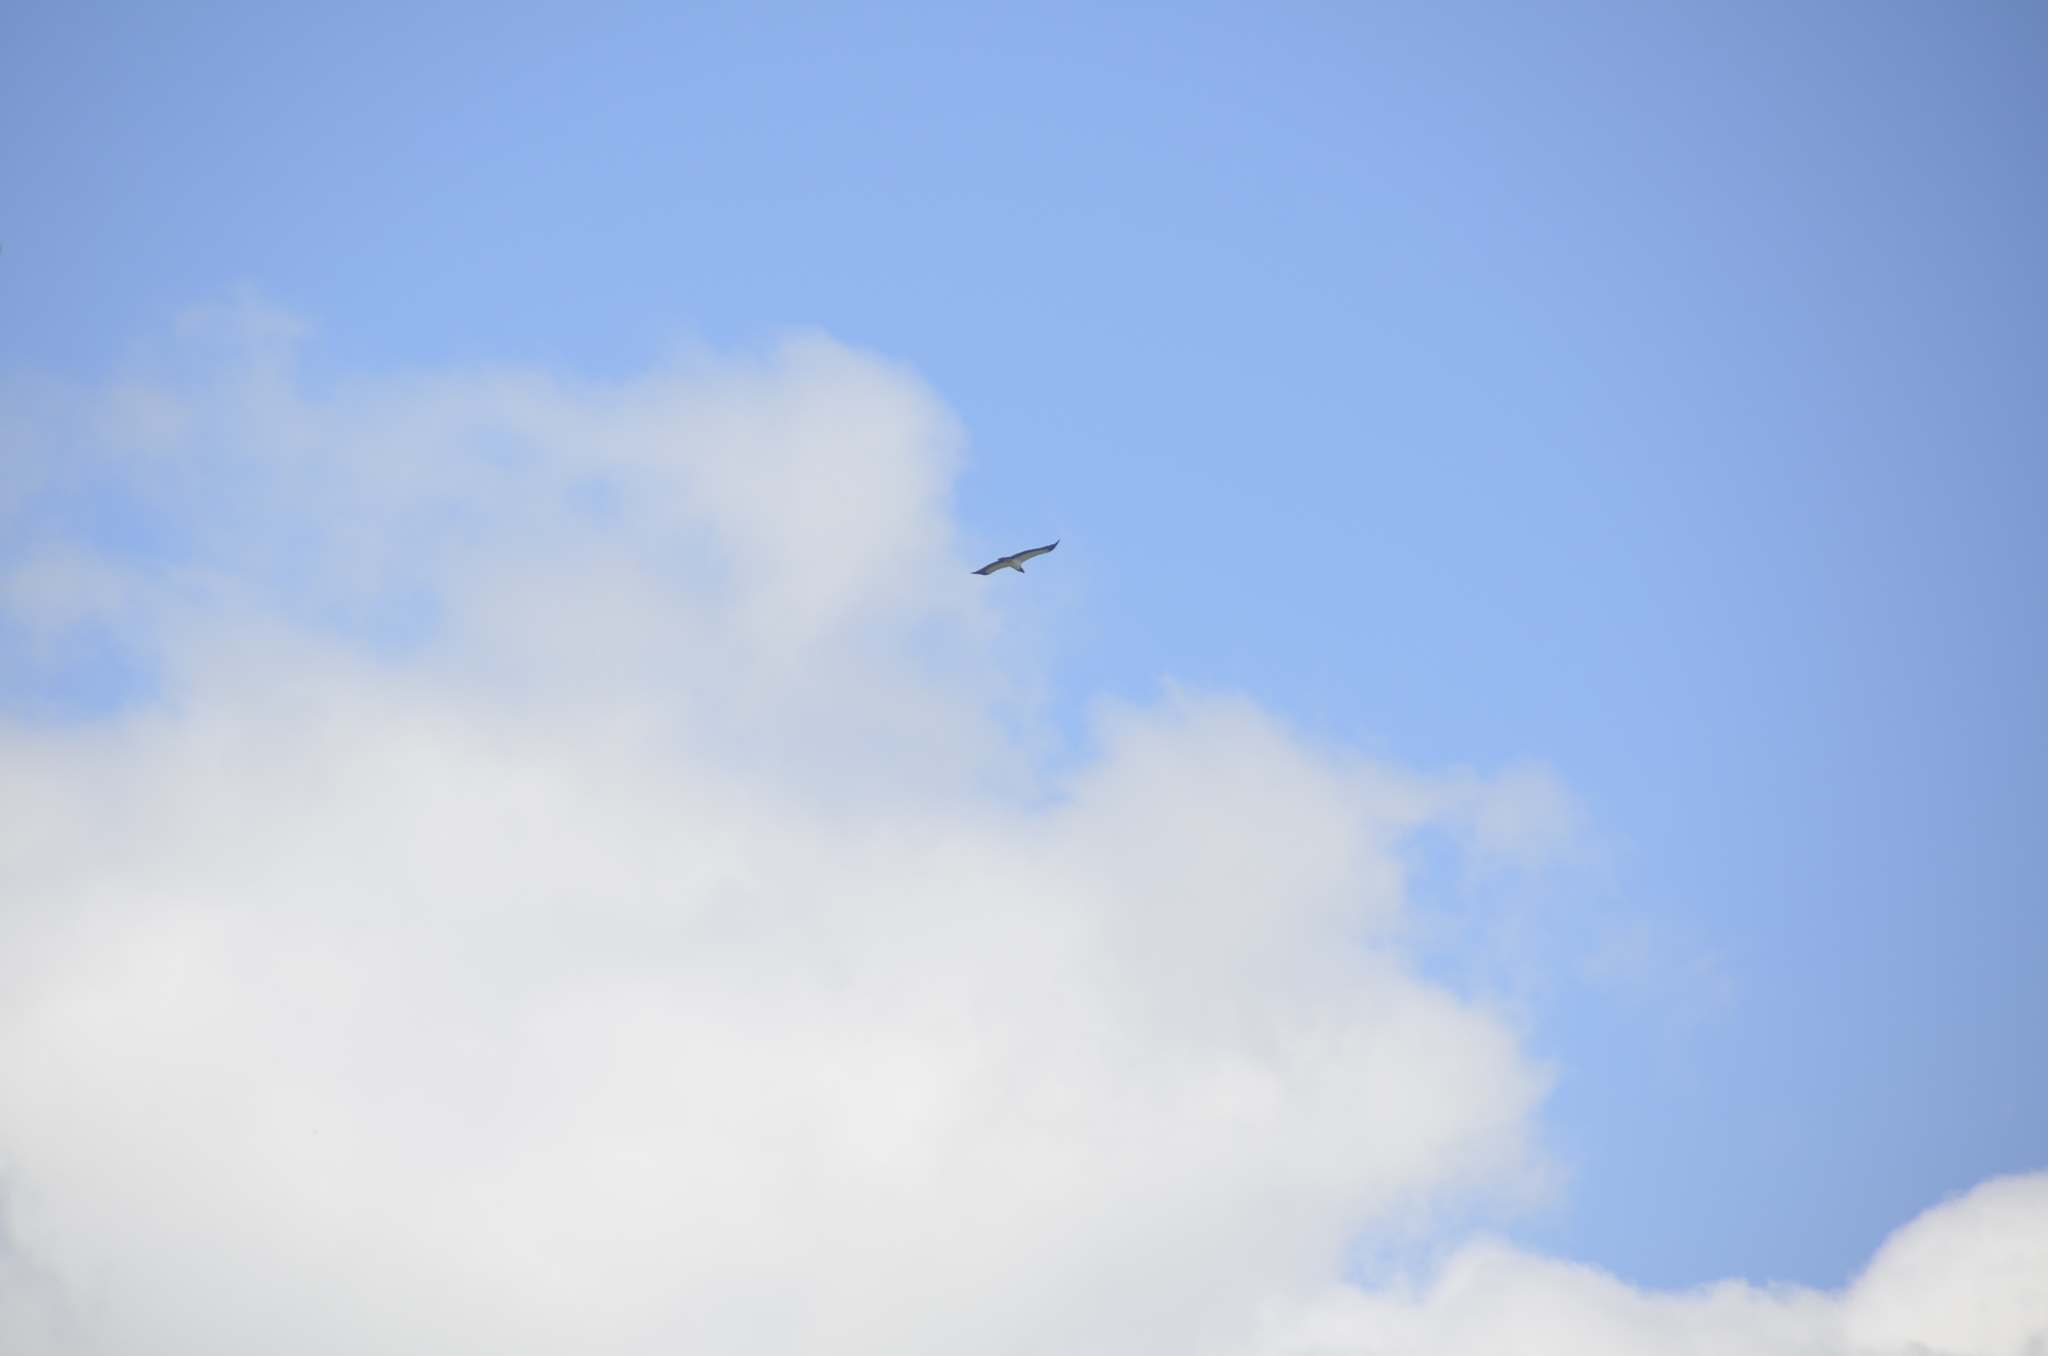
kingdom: Animalia
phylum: Chordata
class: Aves
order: Accipitriformes
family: Cathartidae
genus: Sarcoramphus
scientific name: Sarcoramphus papa
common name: King vulture
